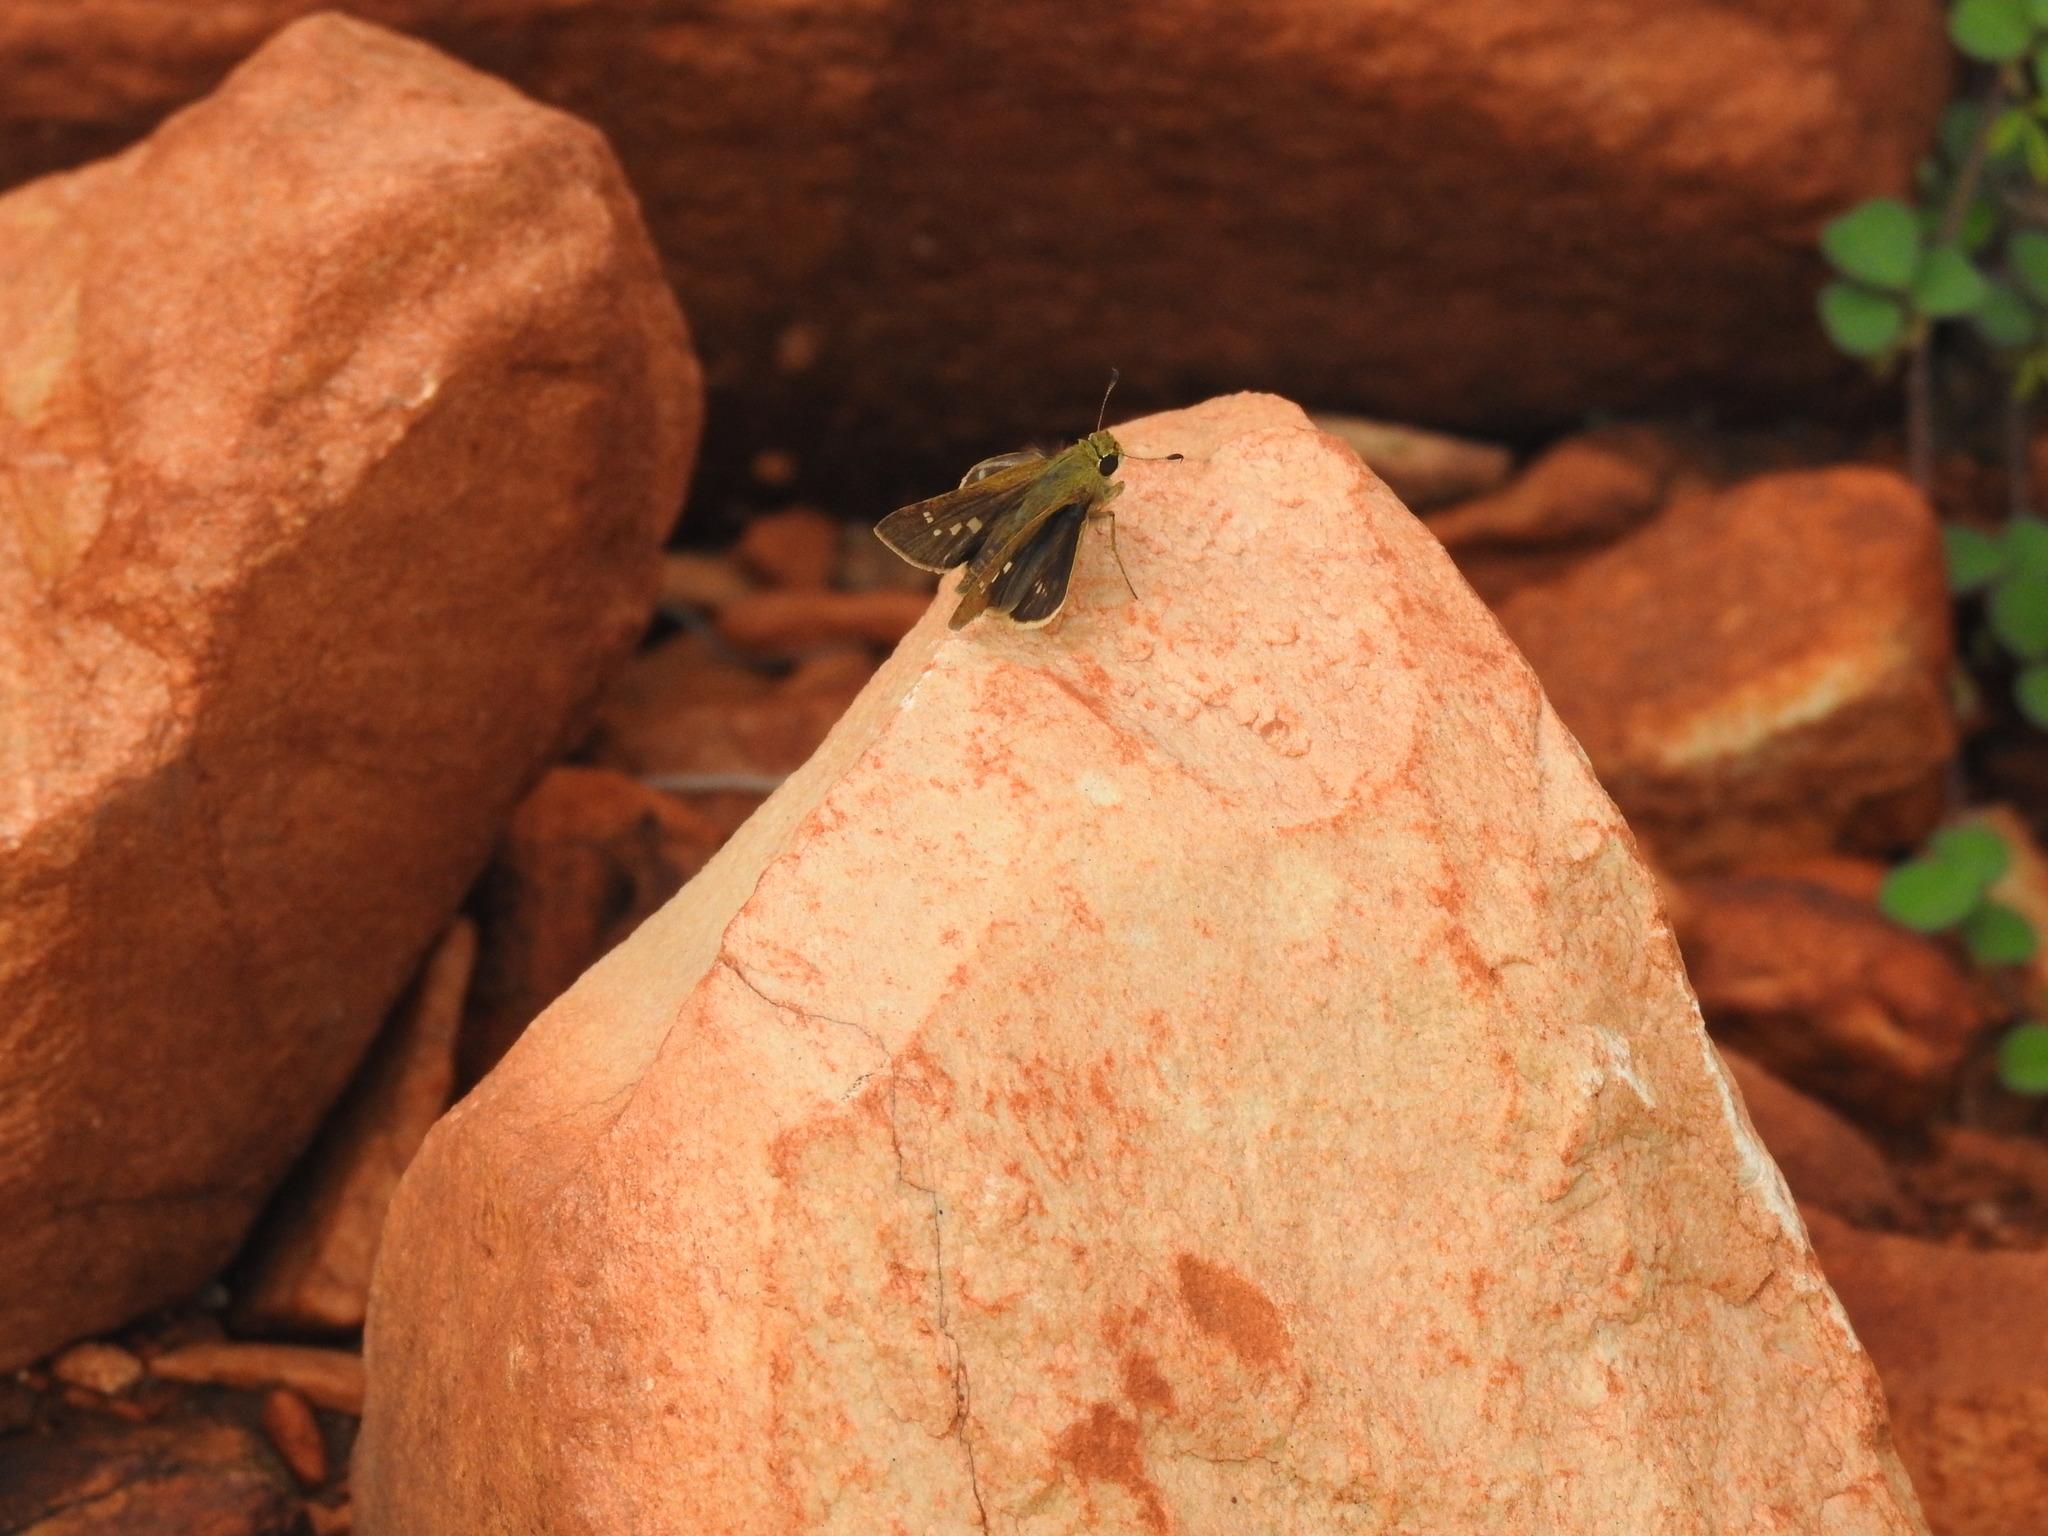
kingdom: Animalia
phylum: Arthropoda
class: Insecta
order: Lepidoptera
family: Hesperiidae
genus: Pelopidas
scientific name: Pelopidas mathias
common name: Black-branded swift
